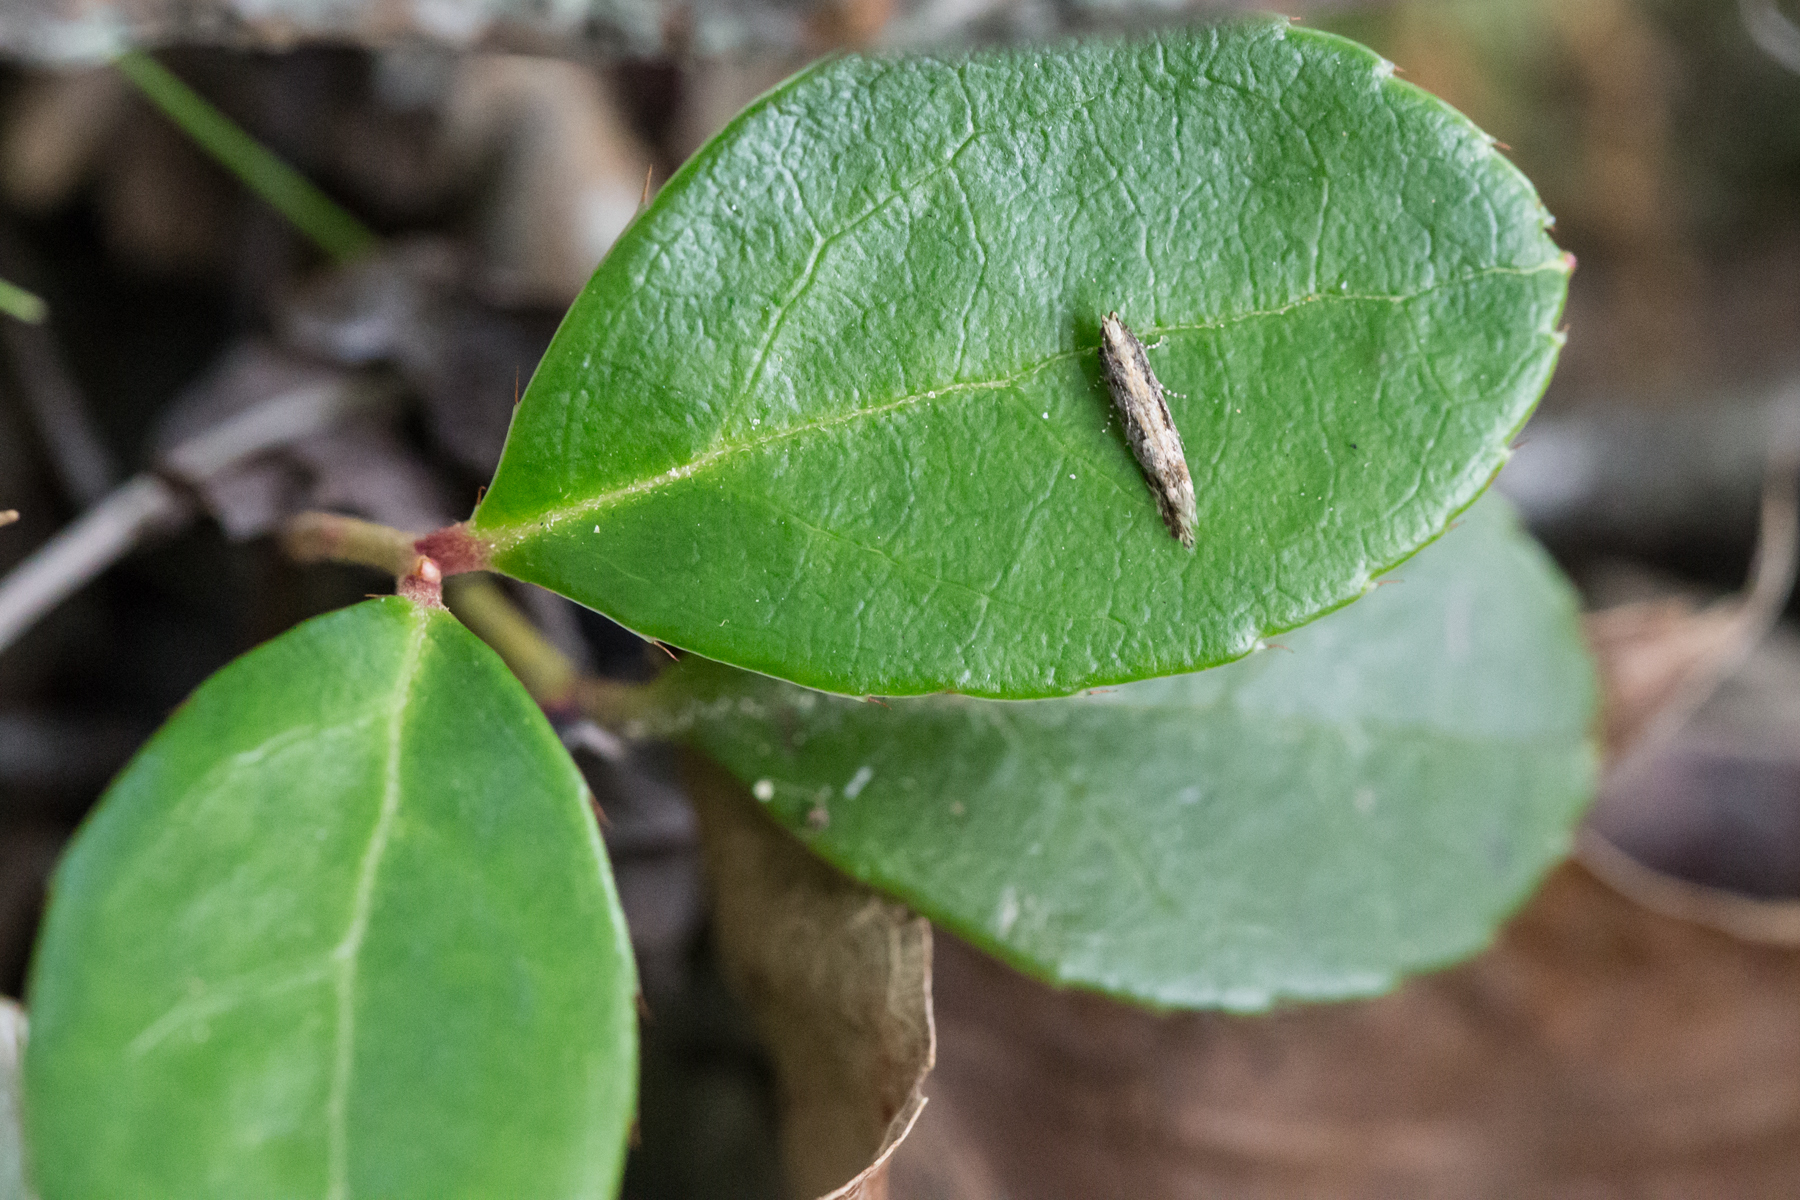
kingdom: Plantae
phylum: Tracheophyta
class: Magnoliopsida
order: Ericales
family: Ericaceae
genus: Gaultheria
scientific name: Gaultheria procumbens
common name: Checkerberry
